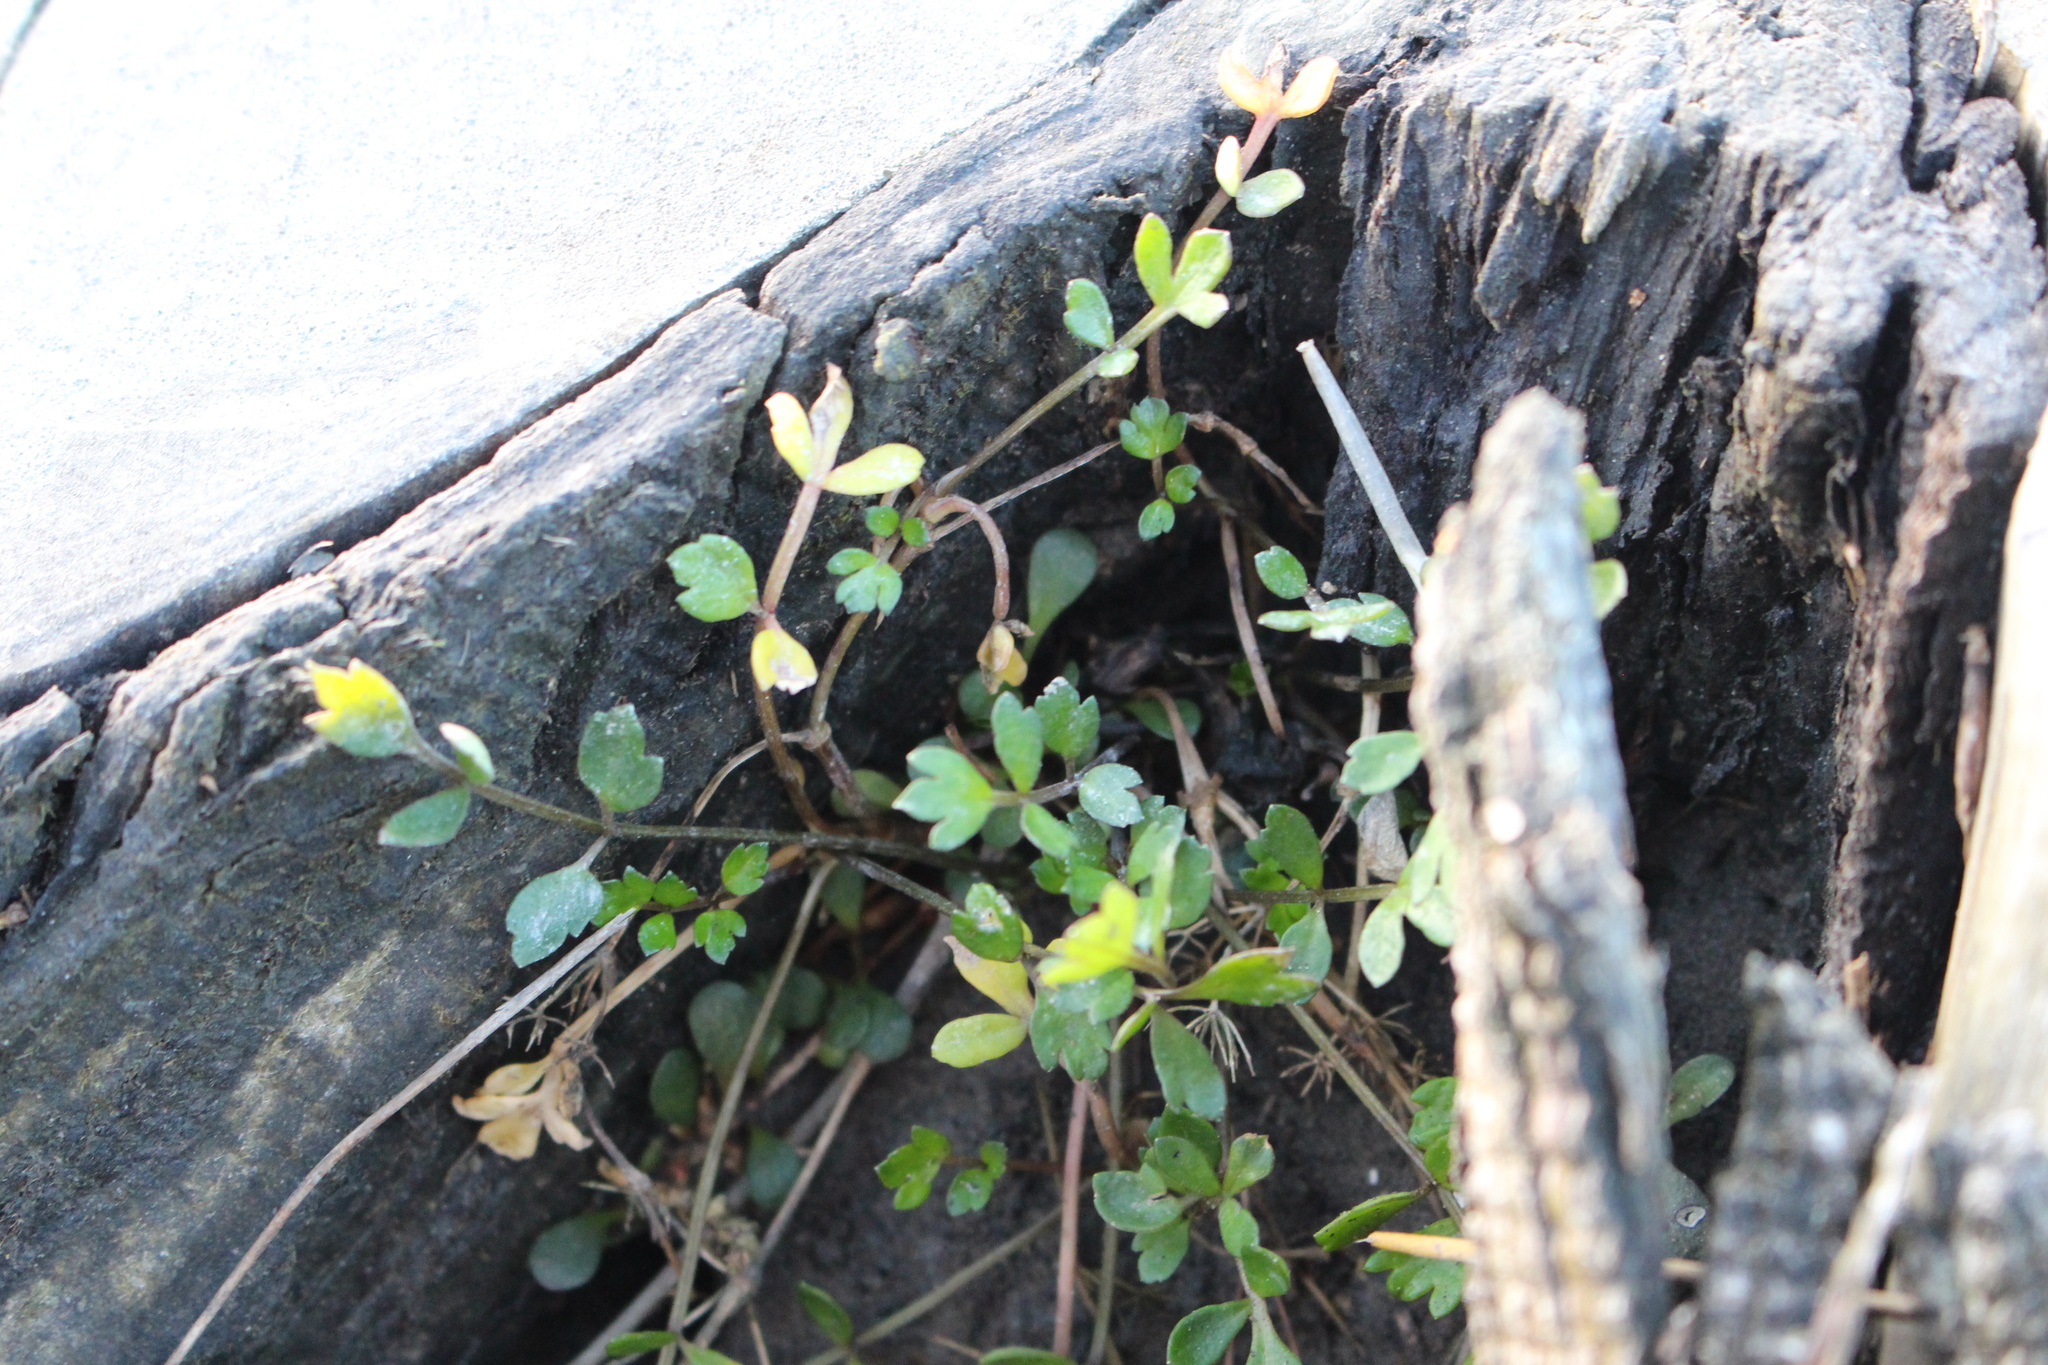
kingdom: Plantae
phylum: Tracheophyta
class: Magnoliopsida
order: Apiales
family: Apiaceae
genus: Apium
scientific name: Apium prostratum
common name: Prostrate marshwort
